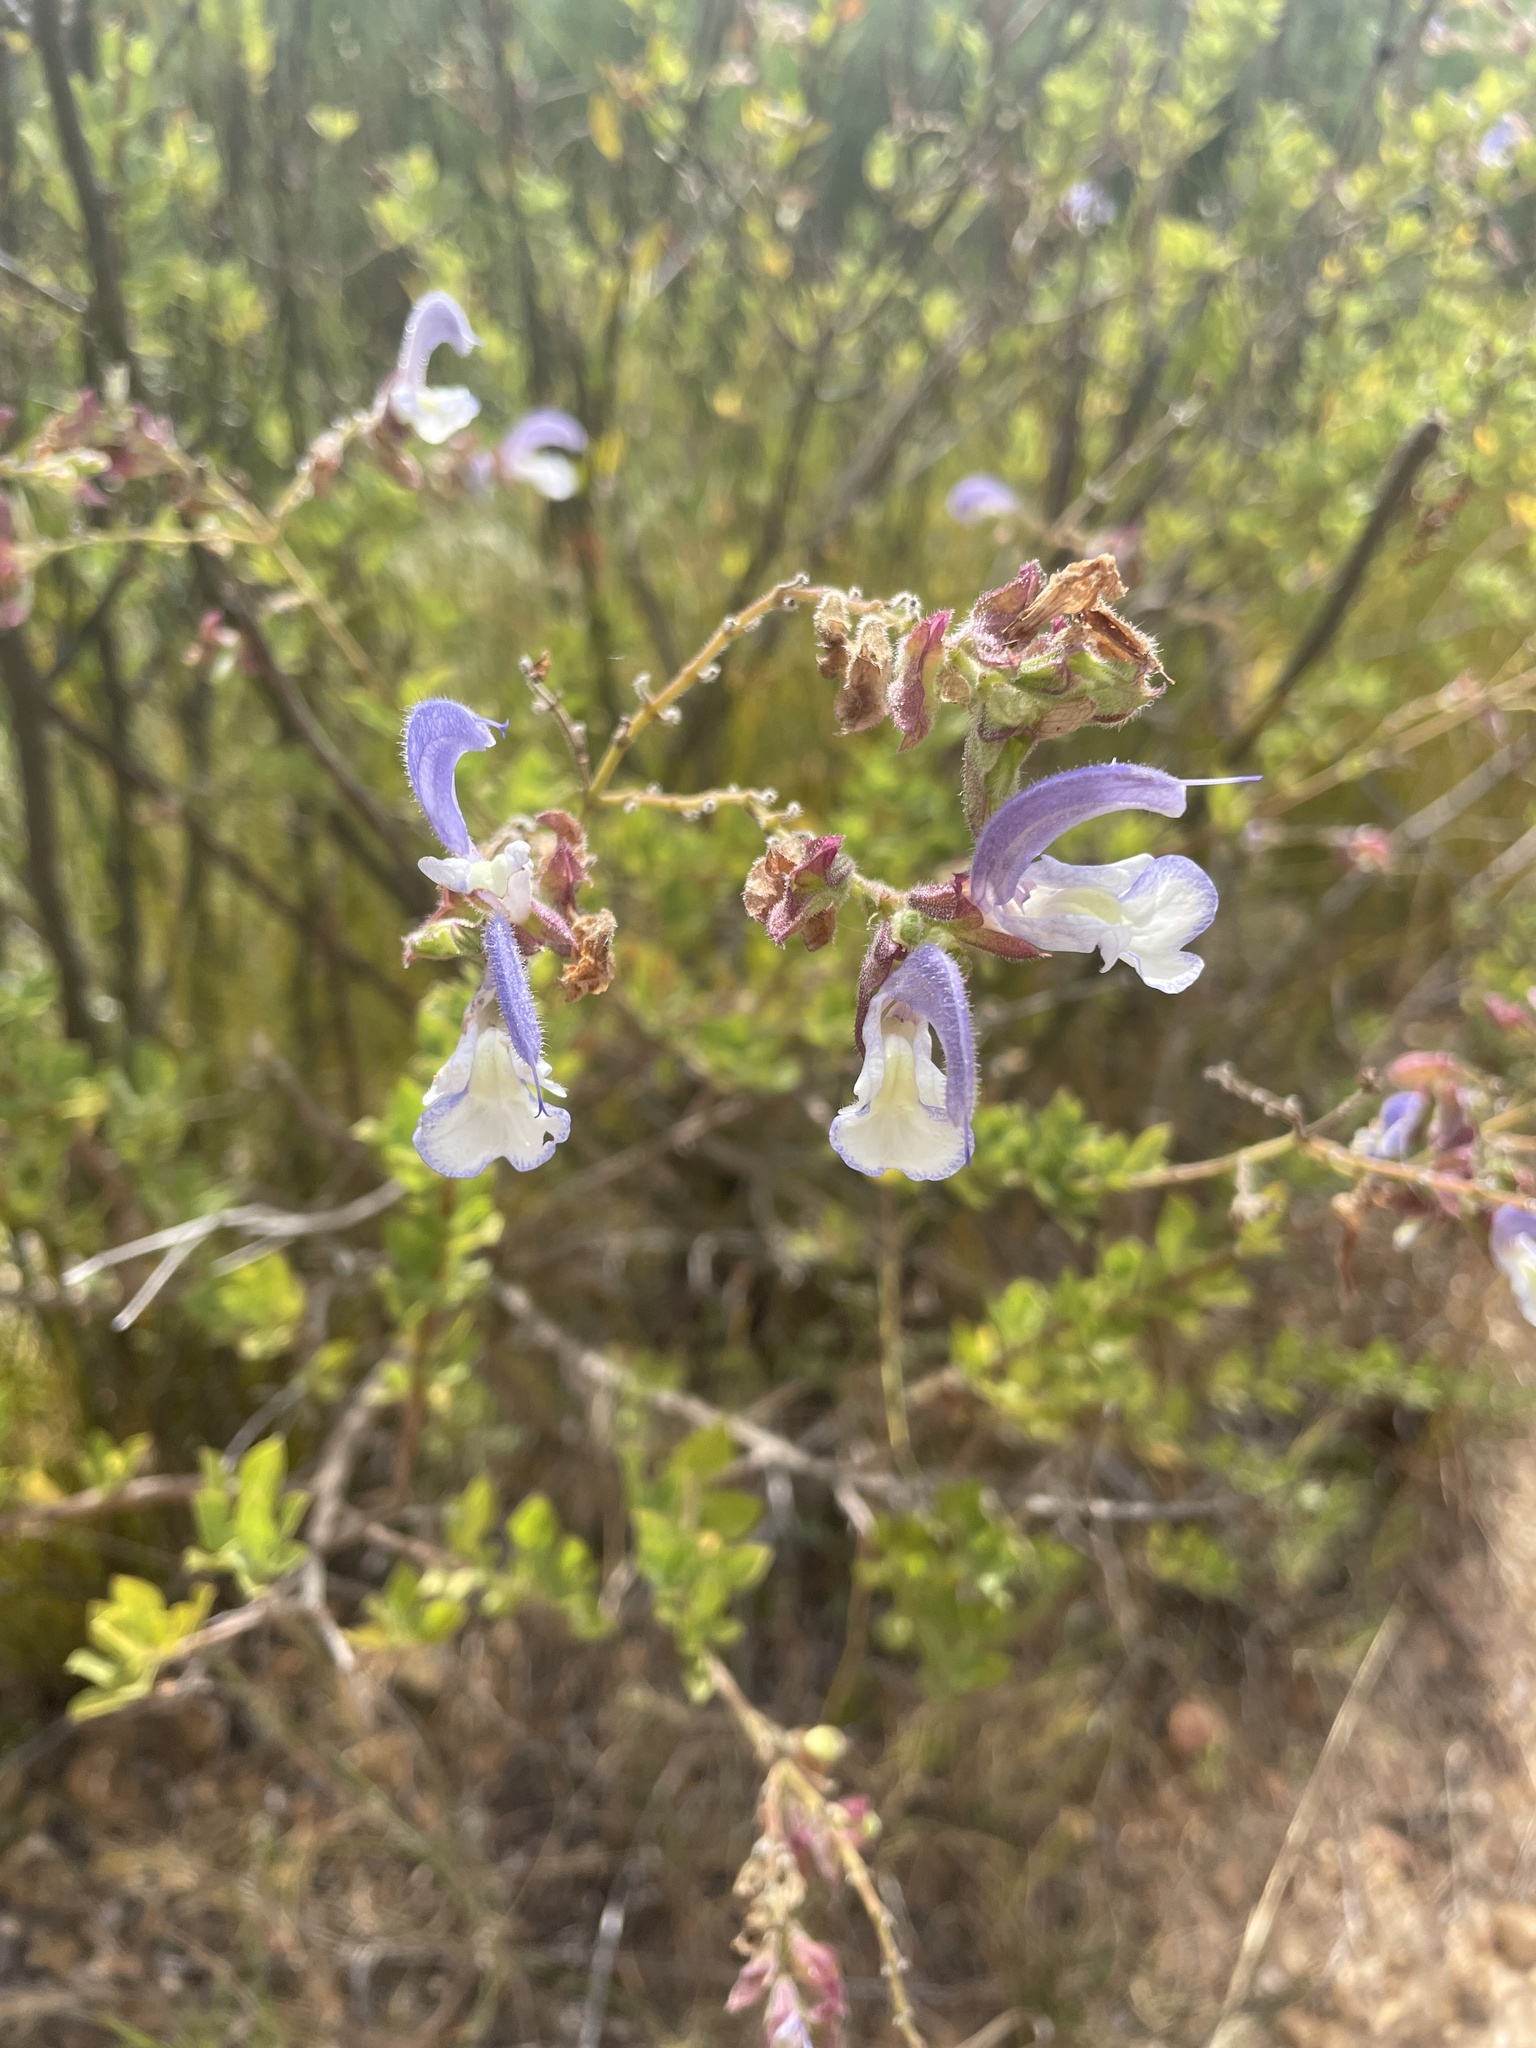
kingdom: Plantae
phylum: Tracheophyta
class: Magnoliopsida
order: Lamiales
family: Lamiaceae
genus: Salvia
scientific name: Salvia chamelaeagnea
